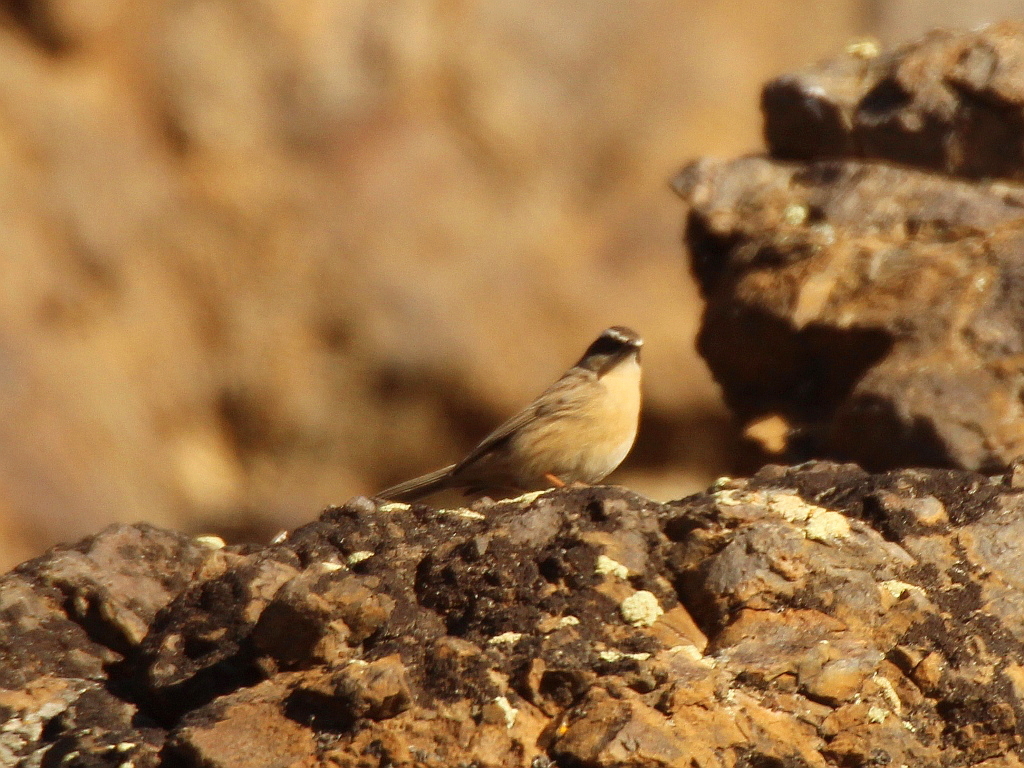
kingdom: Animalia
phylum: Chordata
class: Aves
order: Passeriformes
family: Prunellidae
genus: Prunella
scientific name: Prunella fulvescens
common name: Brown accentor
